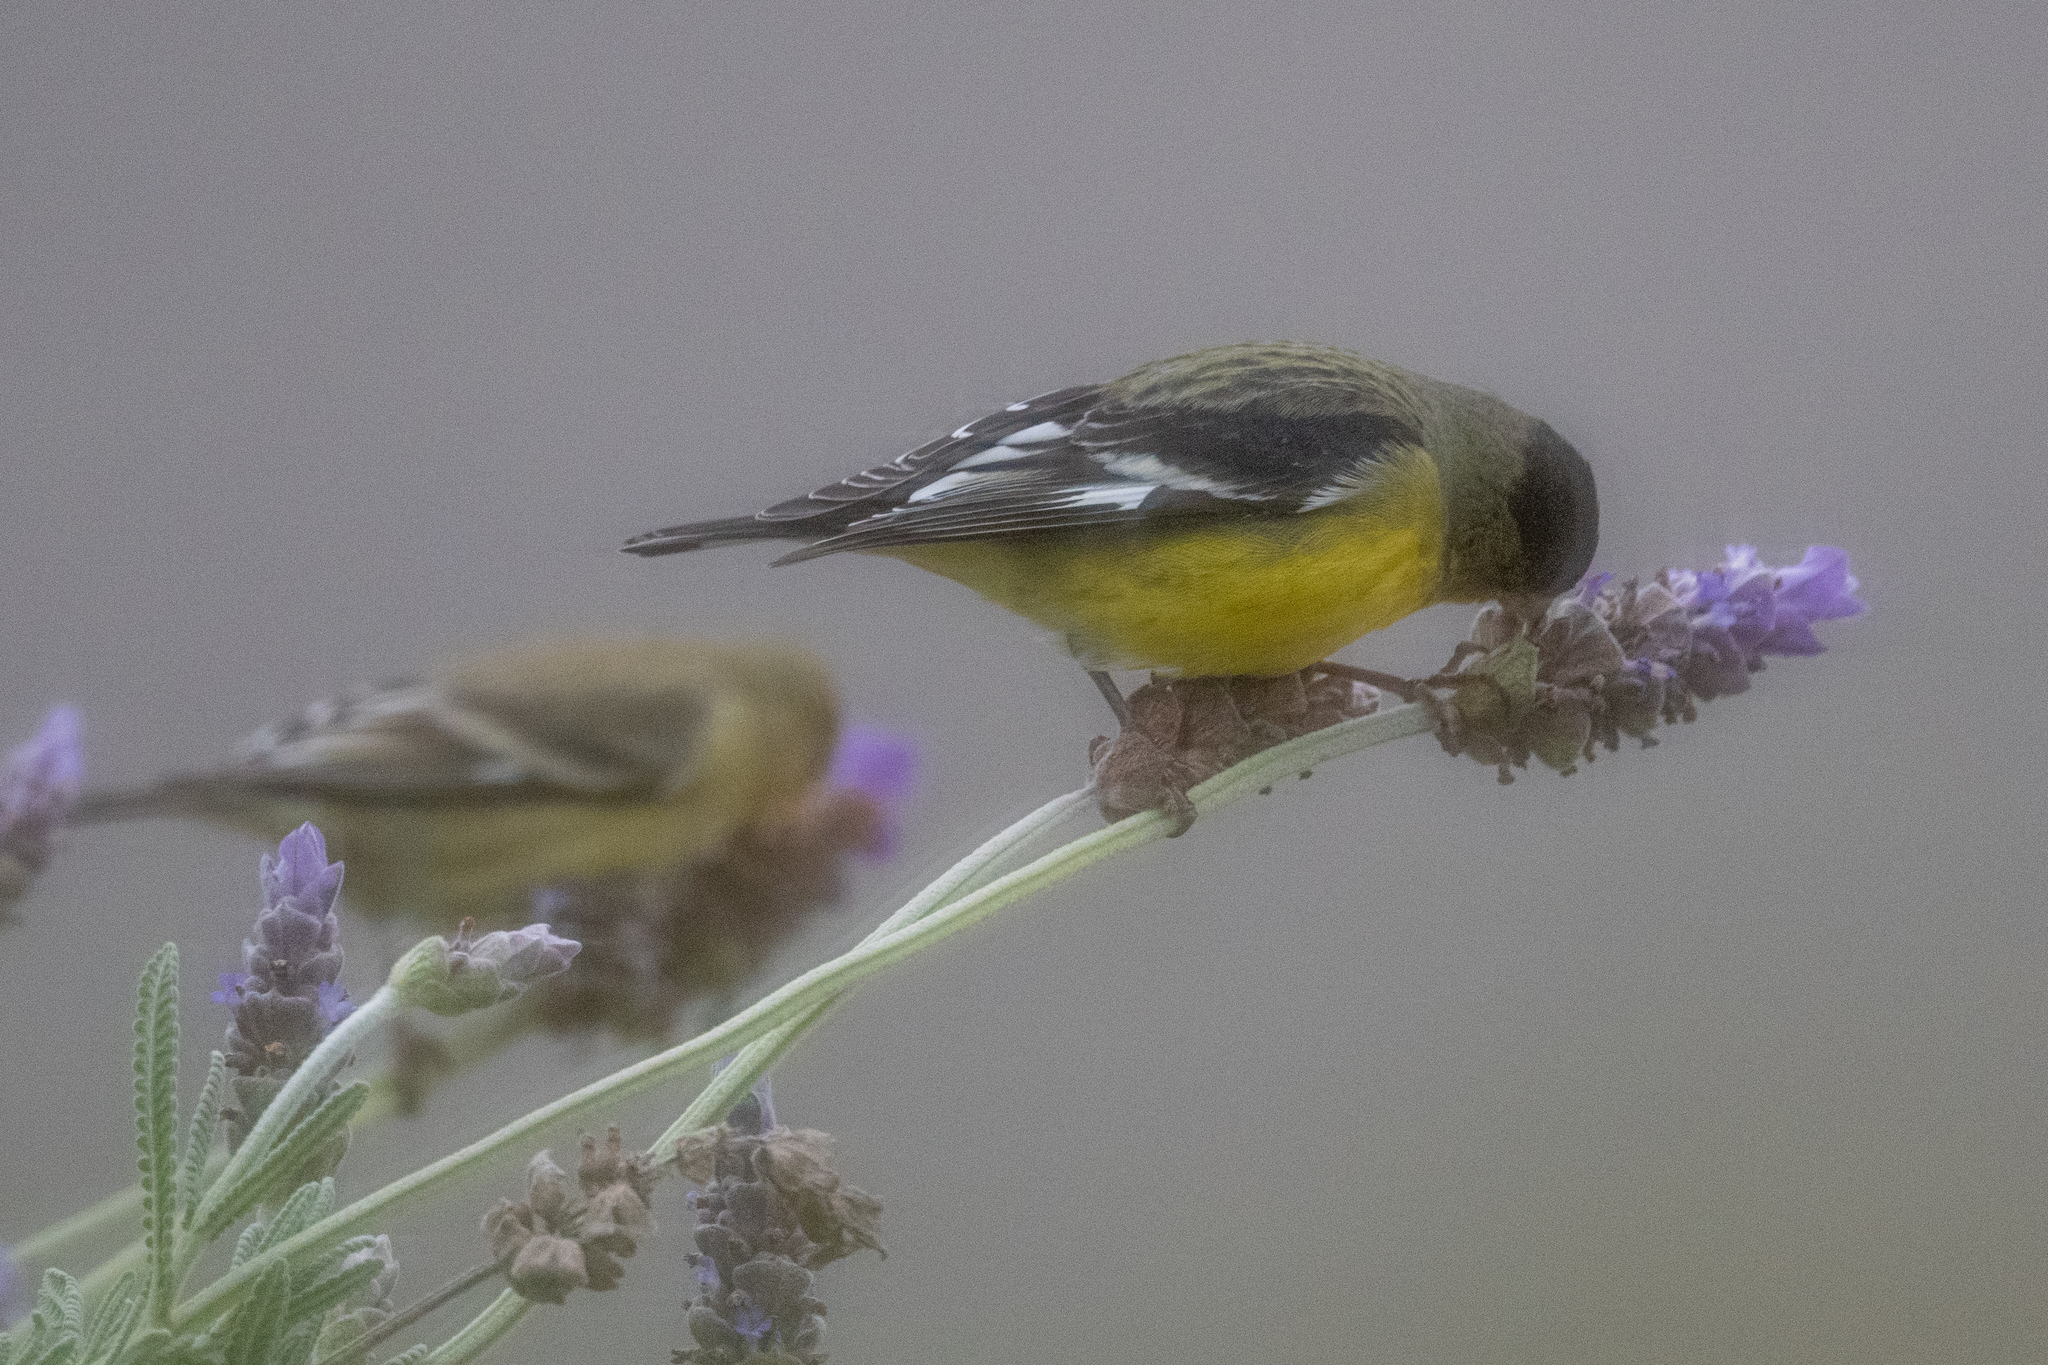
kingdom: Animalia
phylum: Chordata
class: Aves
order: Passeriformes
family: Fringillidae
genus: Spinus
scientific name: Spinus psaltria
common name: Lesser goldfinch
